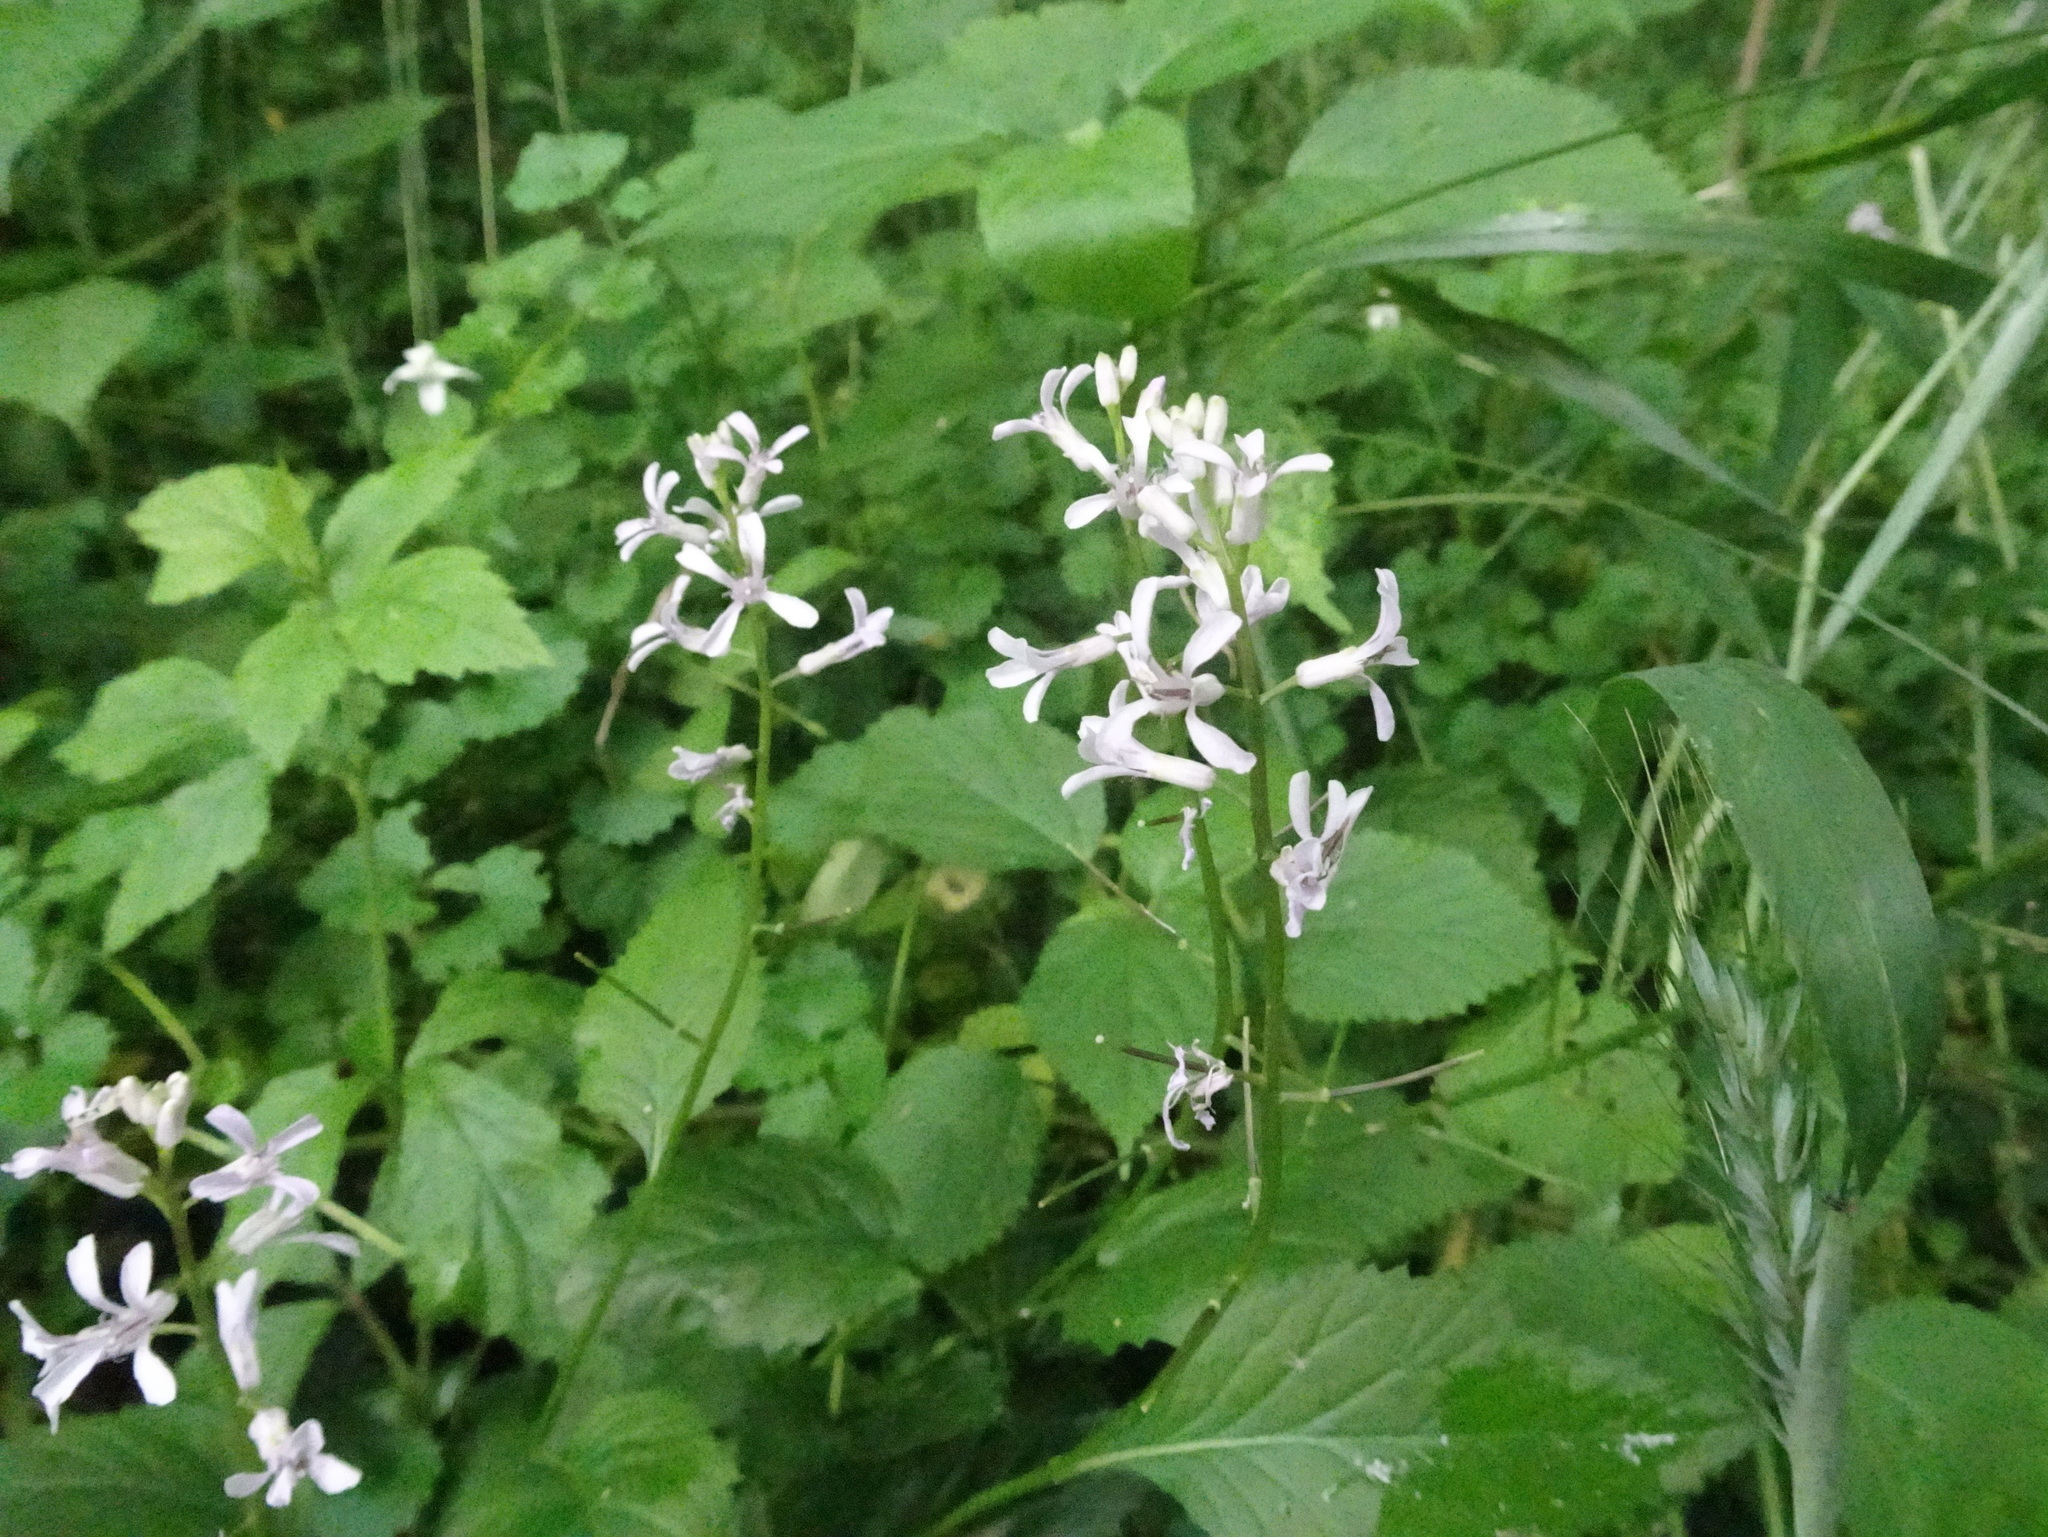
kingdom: Plantae
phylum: Tracheophyta
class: Magnoliopsida
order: Brassicales
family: Brassicaceae
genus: Iodanthus
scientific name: Iodanthus pinnatifidus
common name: Violet rocket
